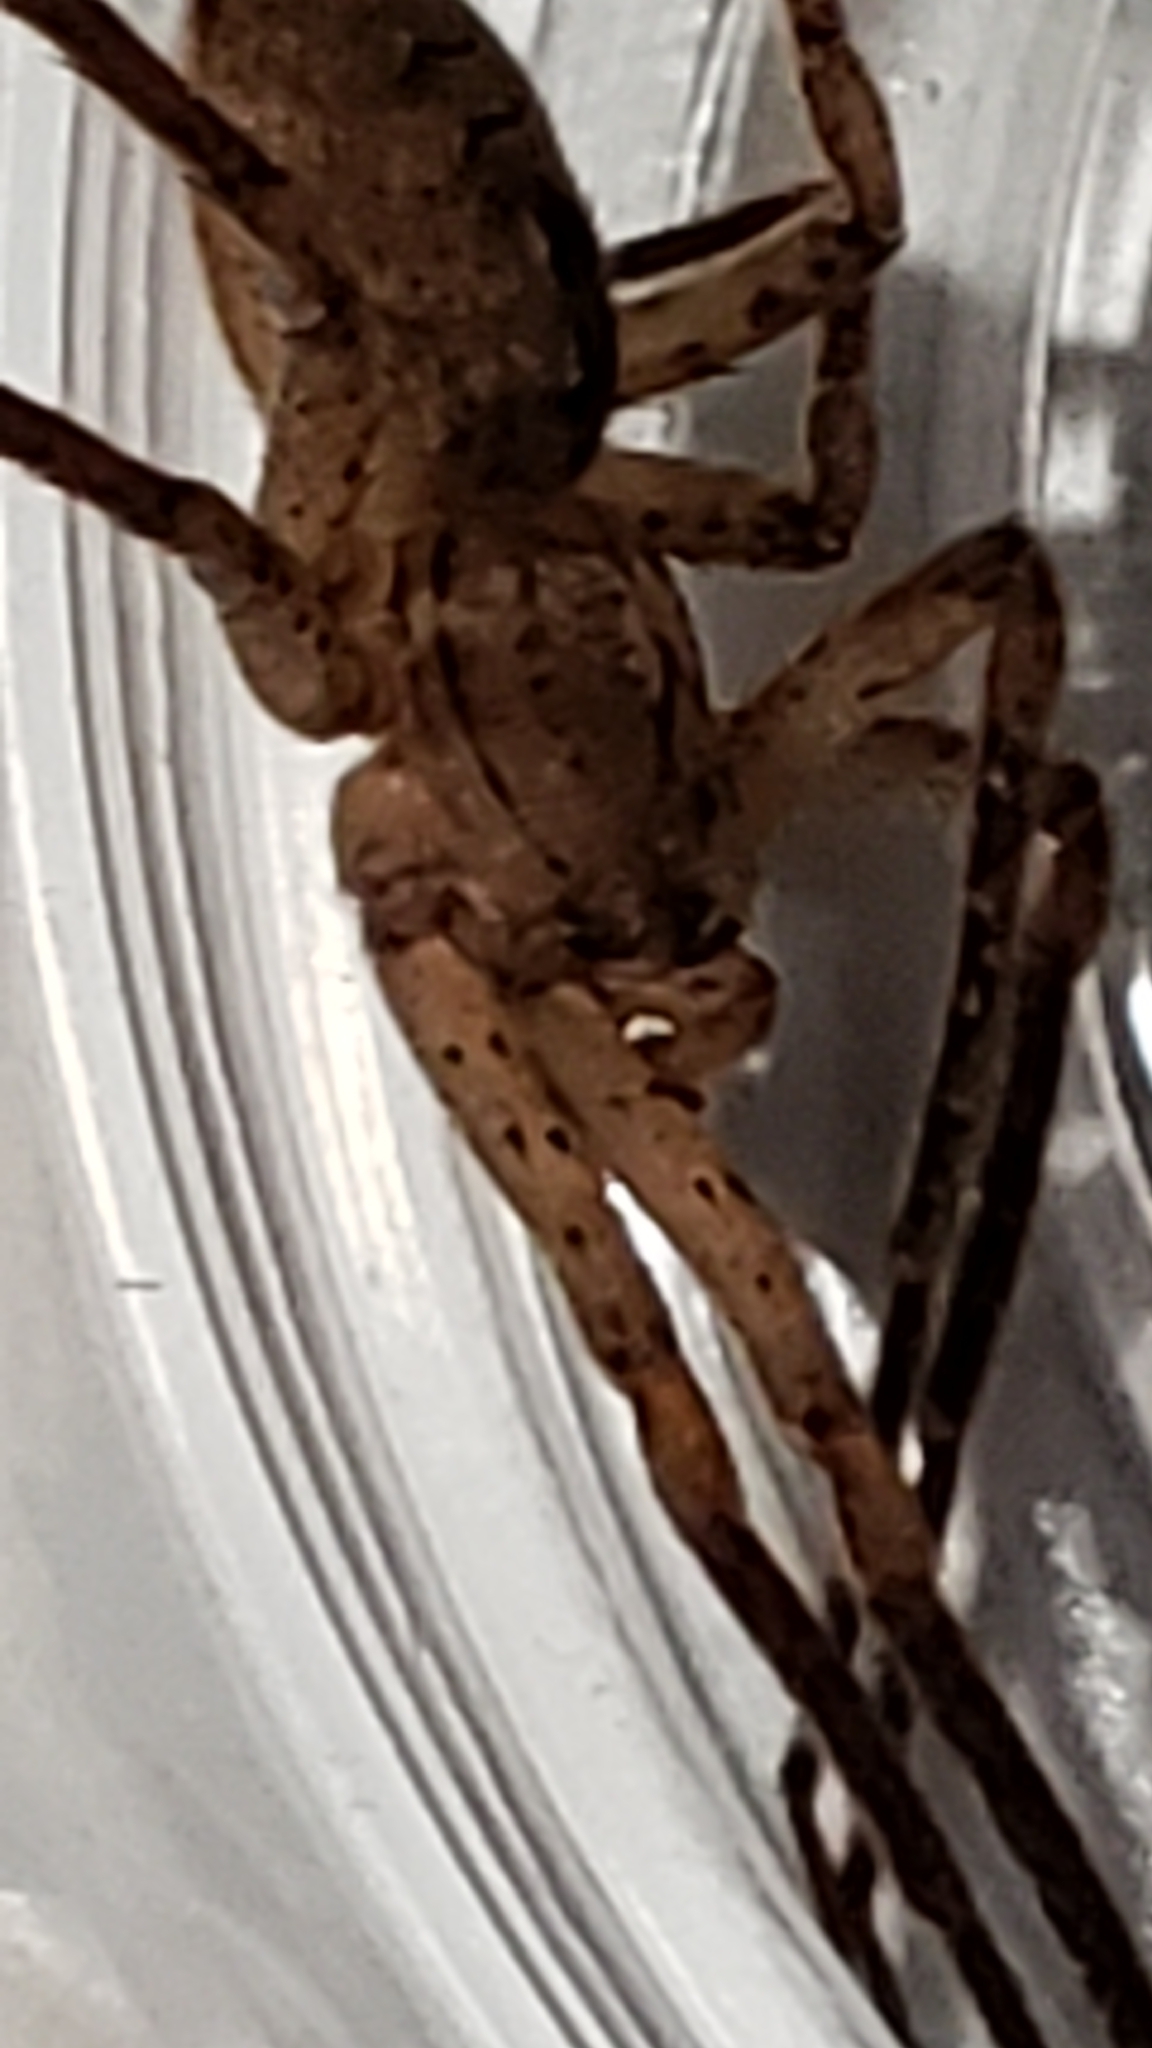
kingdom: Animalia
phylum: Arthropoda
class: Arachnida
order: Araneae
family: Zoropsidae
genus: Zoropsis
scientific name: Zoropsis spinimana
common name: Zoropsid spider
